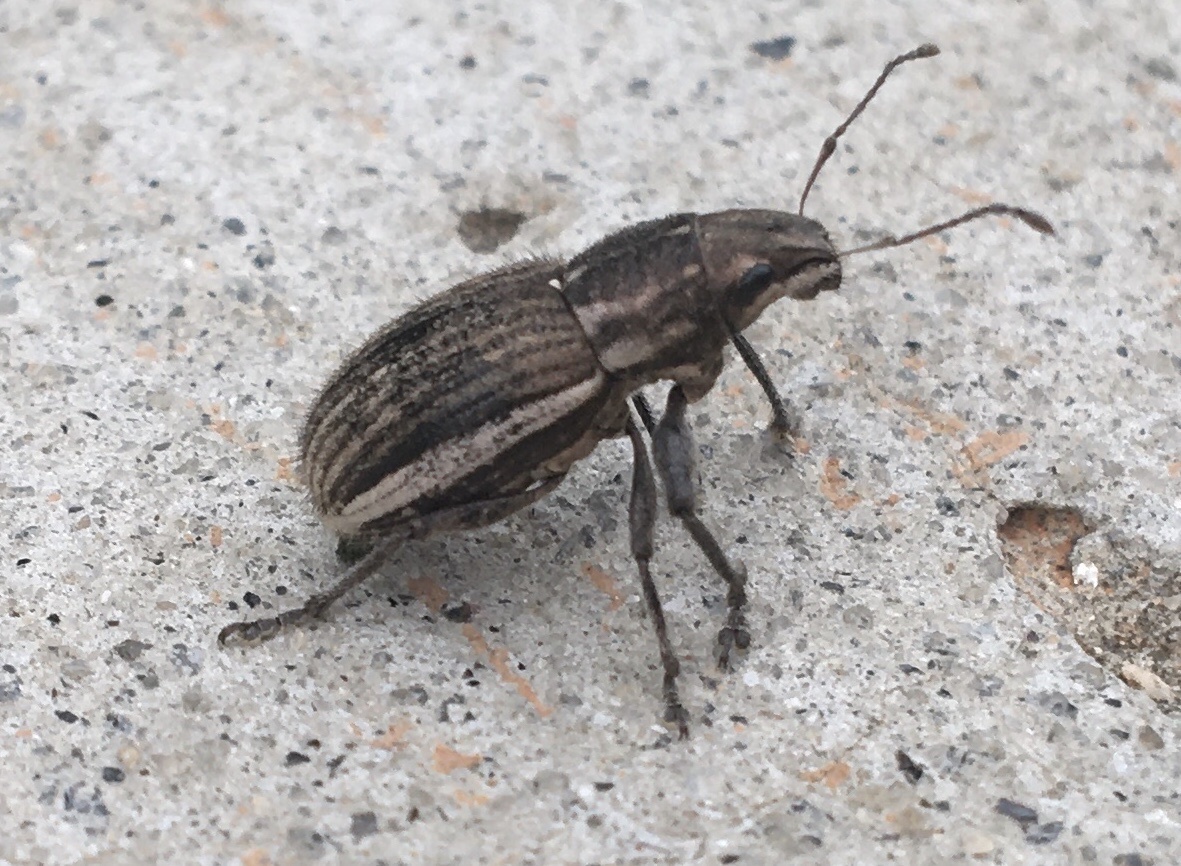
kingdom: Animalia
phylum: Arthropoda
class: Insecta
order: Coleoptera
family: Curculionidae
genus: Naupactus
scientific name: Naupactus leucoloma
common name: Whitefringed beetle
